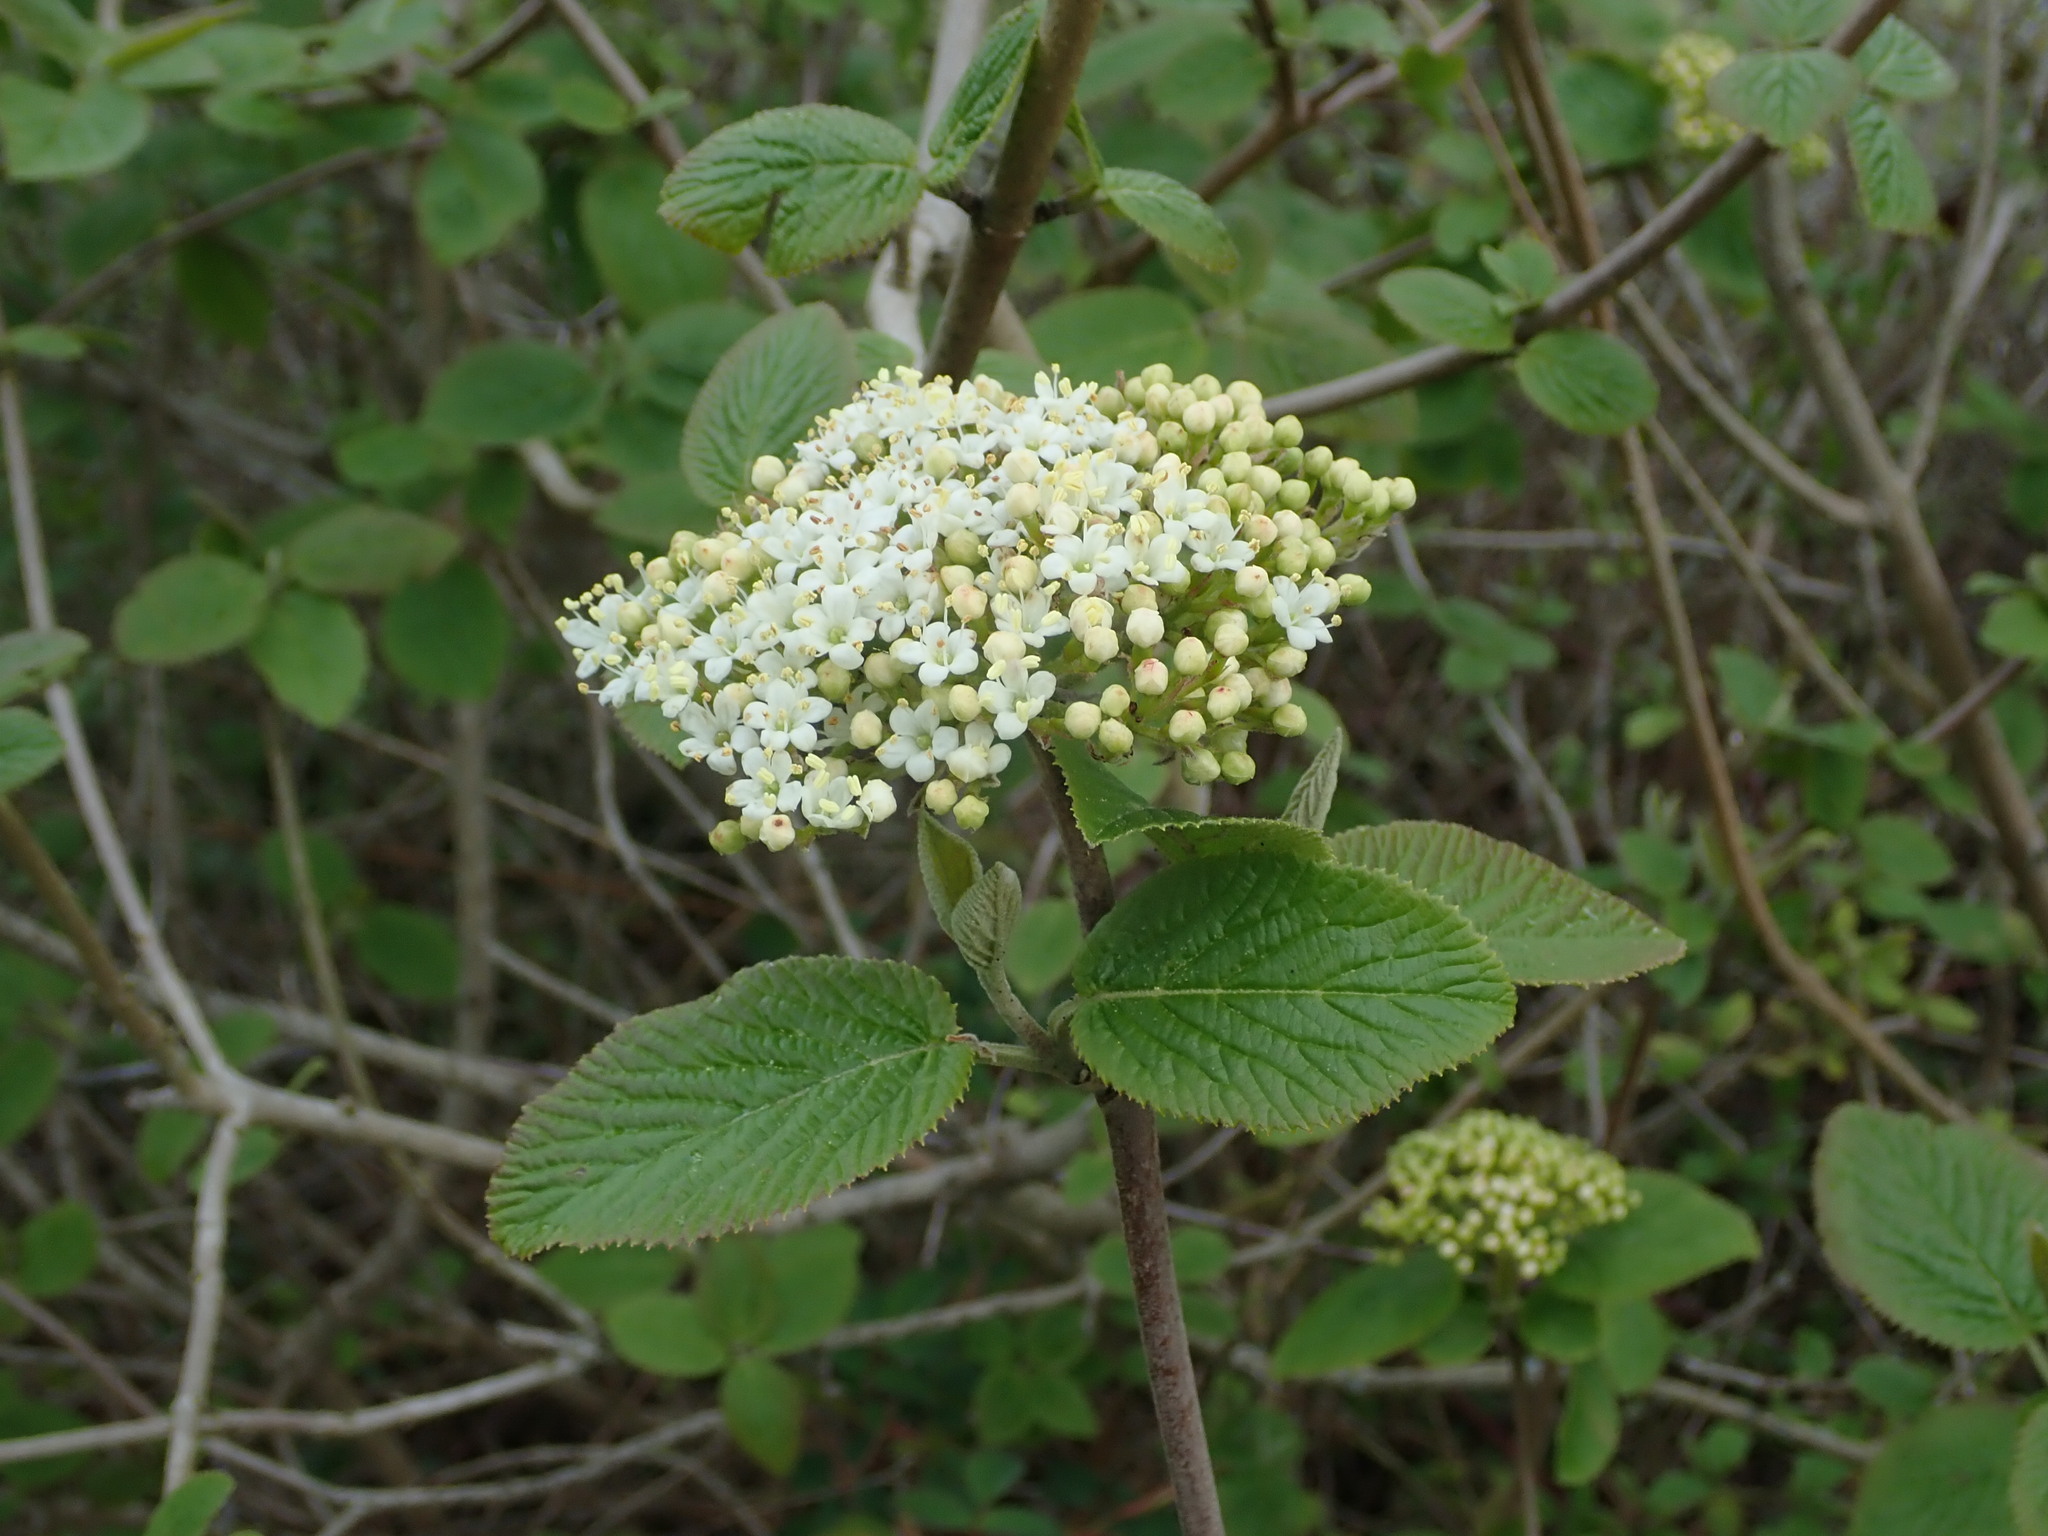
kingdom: Plantae
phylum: Tracheophyta
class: Magnoliopsida
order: Dipsacales
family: Viburnaceae
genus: Viburnum
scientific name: Viburnum lantana
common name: Wayfaring tree
